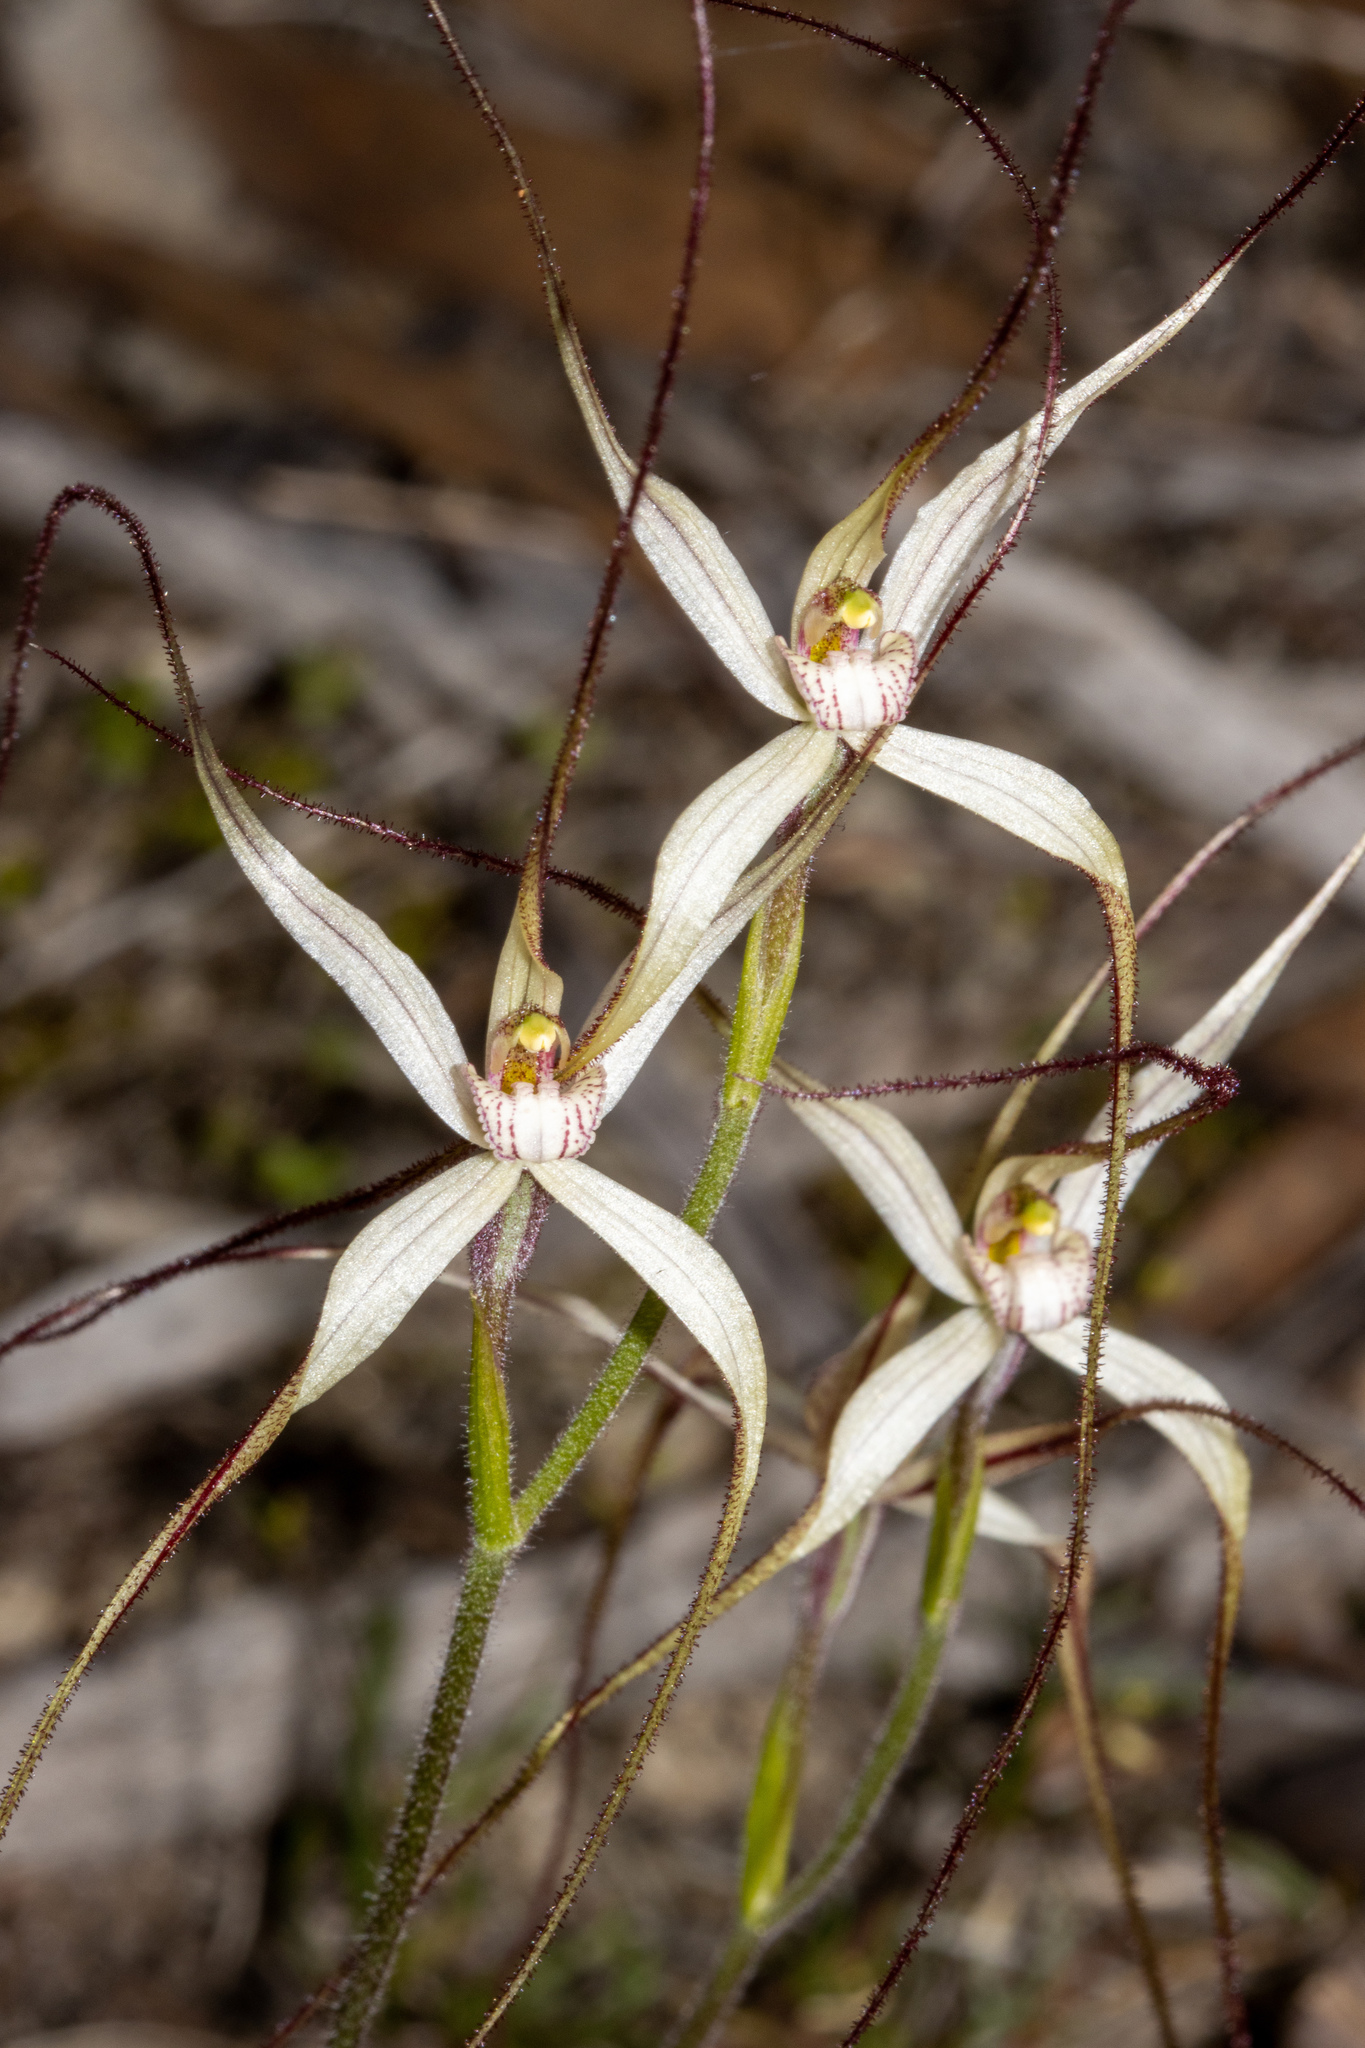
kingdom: Plantae
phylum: Tracheophyta
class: Liliopsida
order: Asparagales
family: Orchidaceae
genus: Caladenia
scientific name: Caladenia capillata
